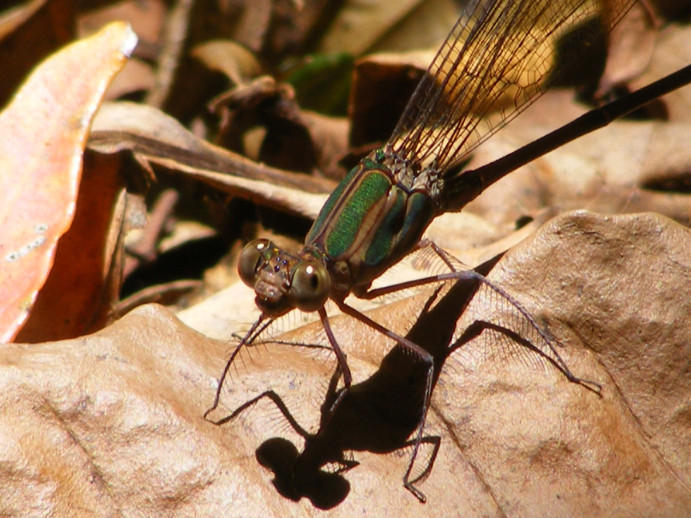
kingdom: Animalia
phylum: Arthropoda
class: Insecta
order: Odonata
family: Calopterygidae
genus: Phaon
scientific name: Phaon iridipennis
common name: Glistening demoiselle
